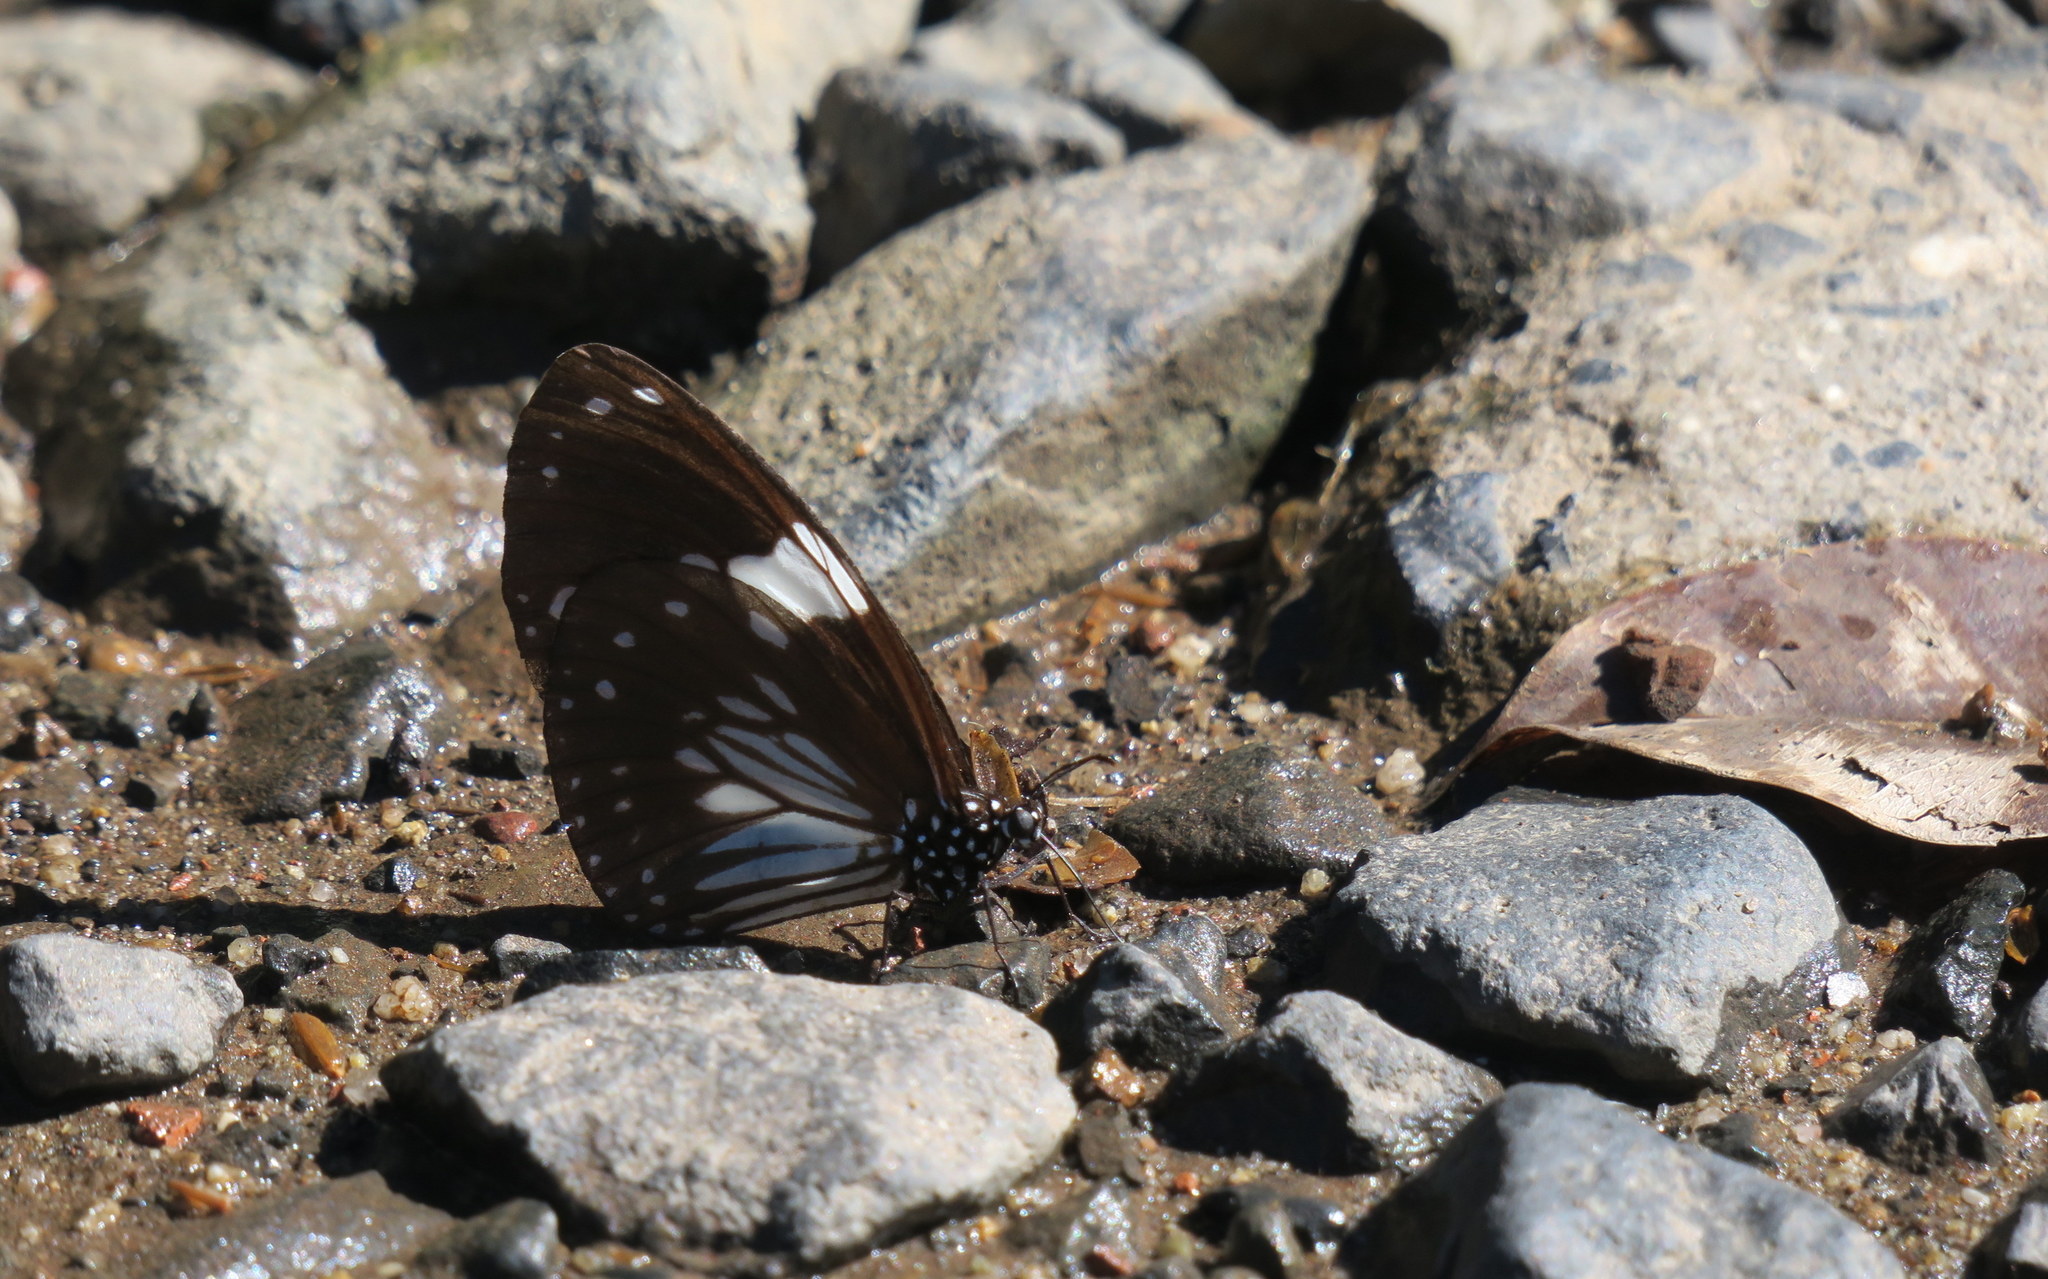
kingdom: Animalia
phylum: Arthropoda
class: Insecta
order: Lepidoptera
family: Nymphalidae
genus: Euploea
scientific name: Euploea radamanthus
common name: Magpie crow butterfly
